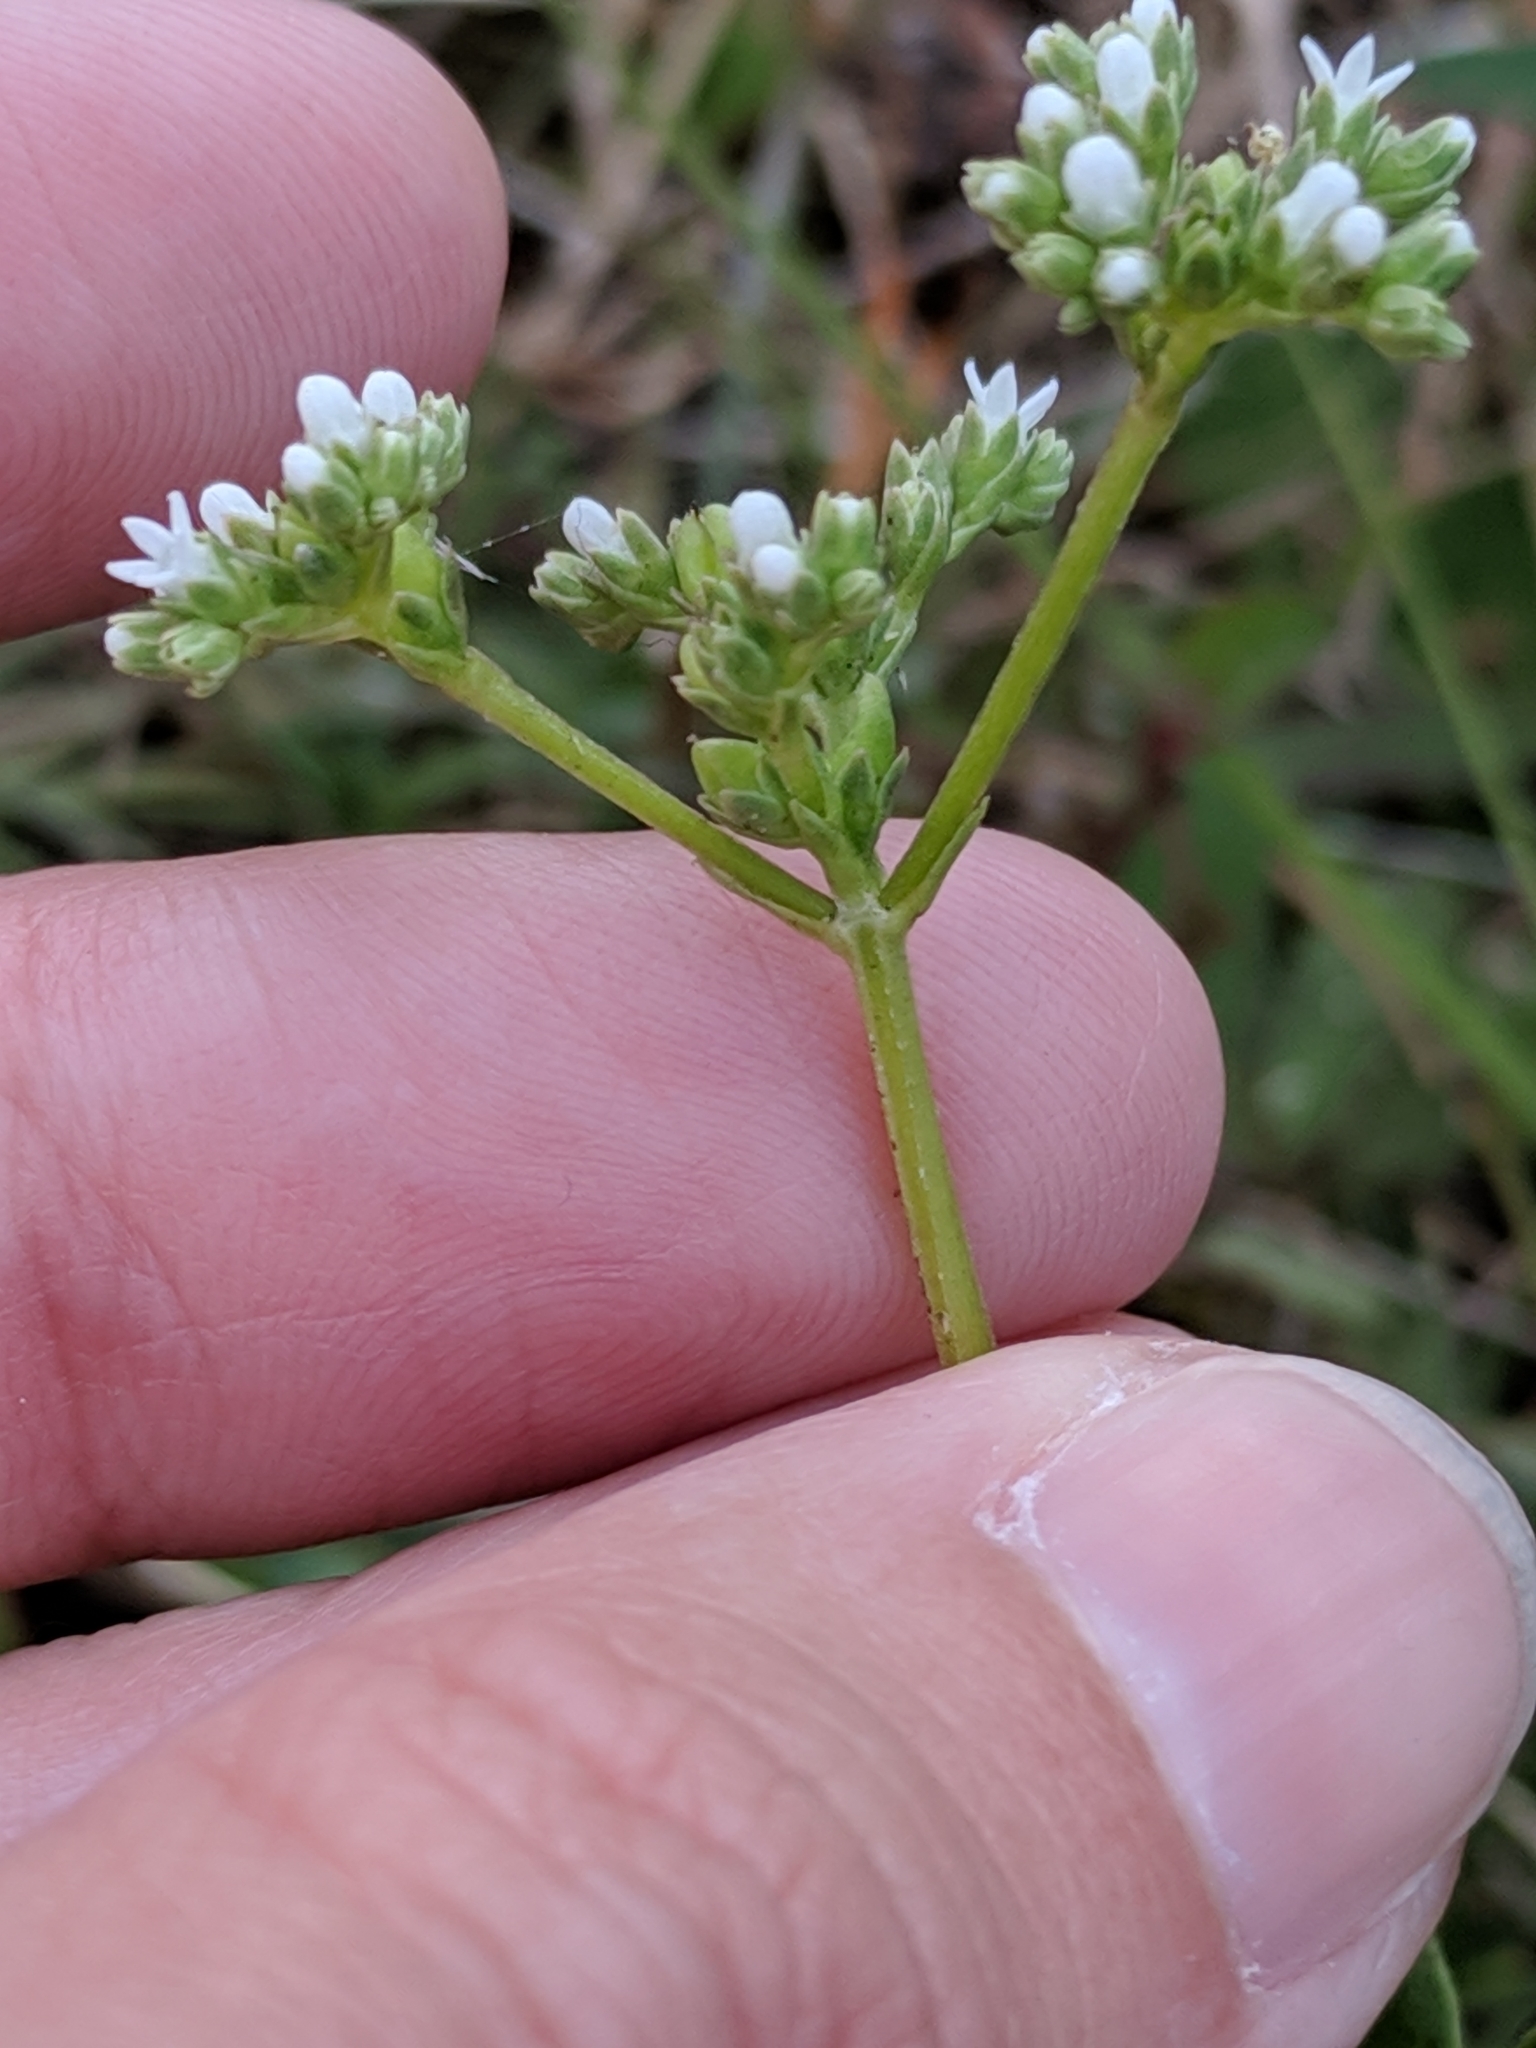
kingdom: Plantae
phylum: Tracheophyta
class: Magnoliopsida
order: Gentianales
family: Loganiaceae
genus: Mitreola
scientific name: Mitreola petiolata
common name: Lax hornpod
